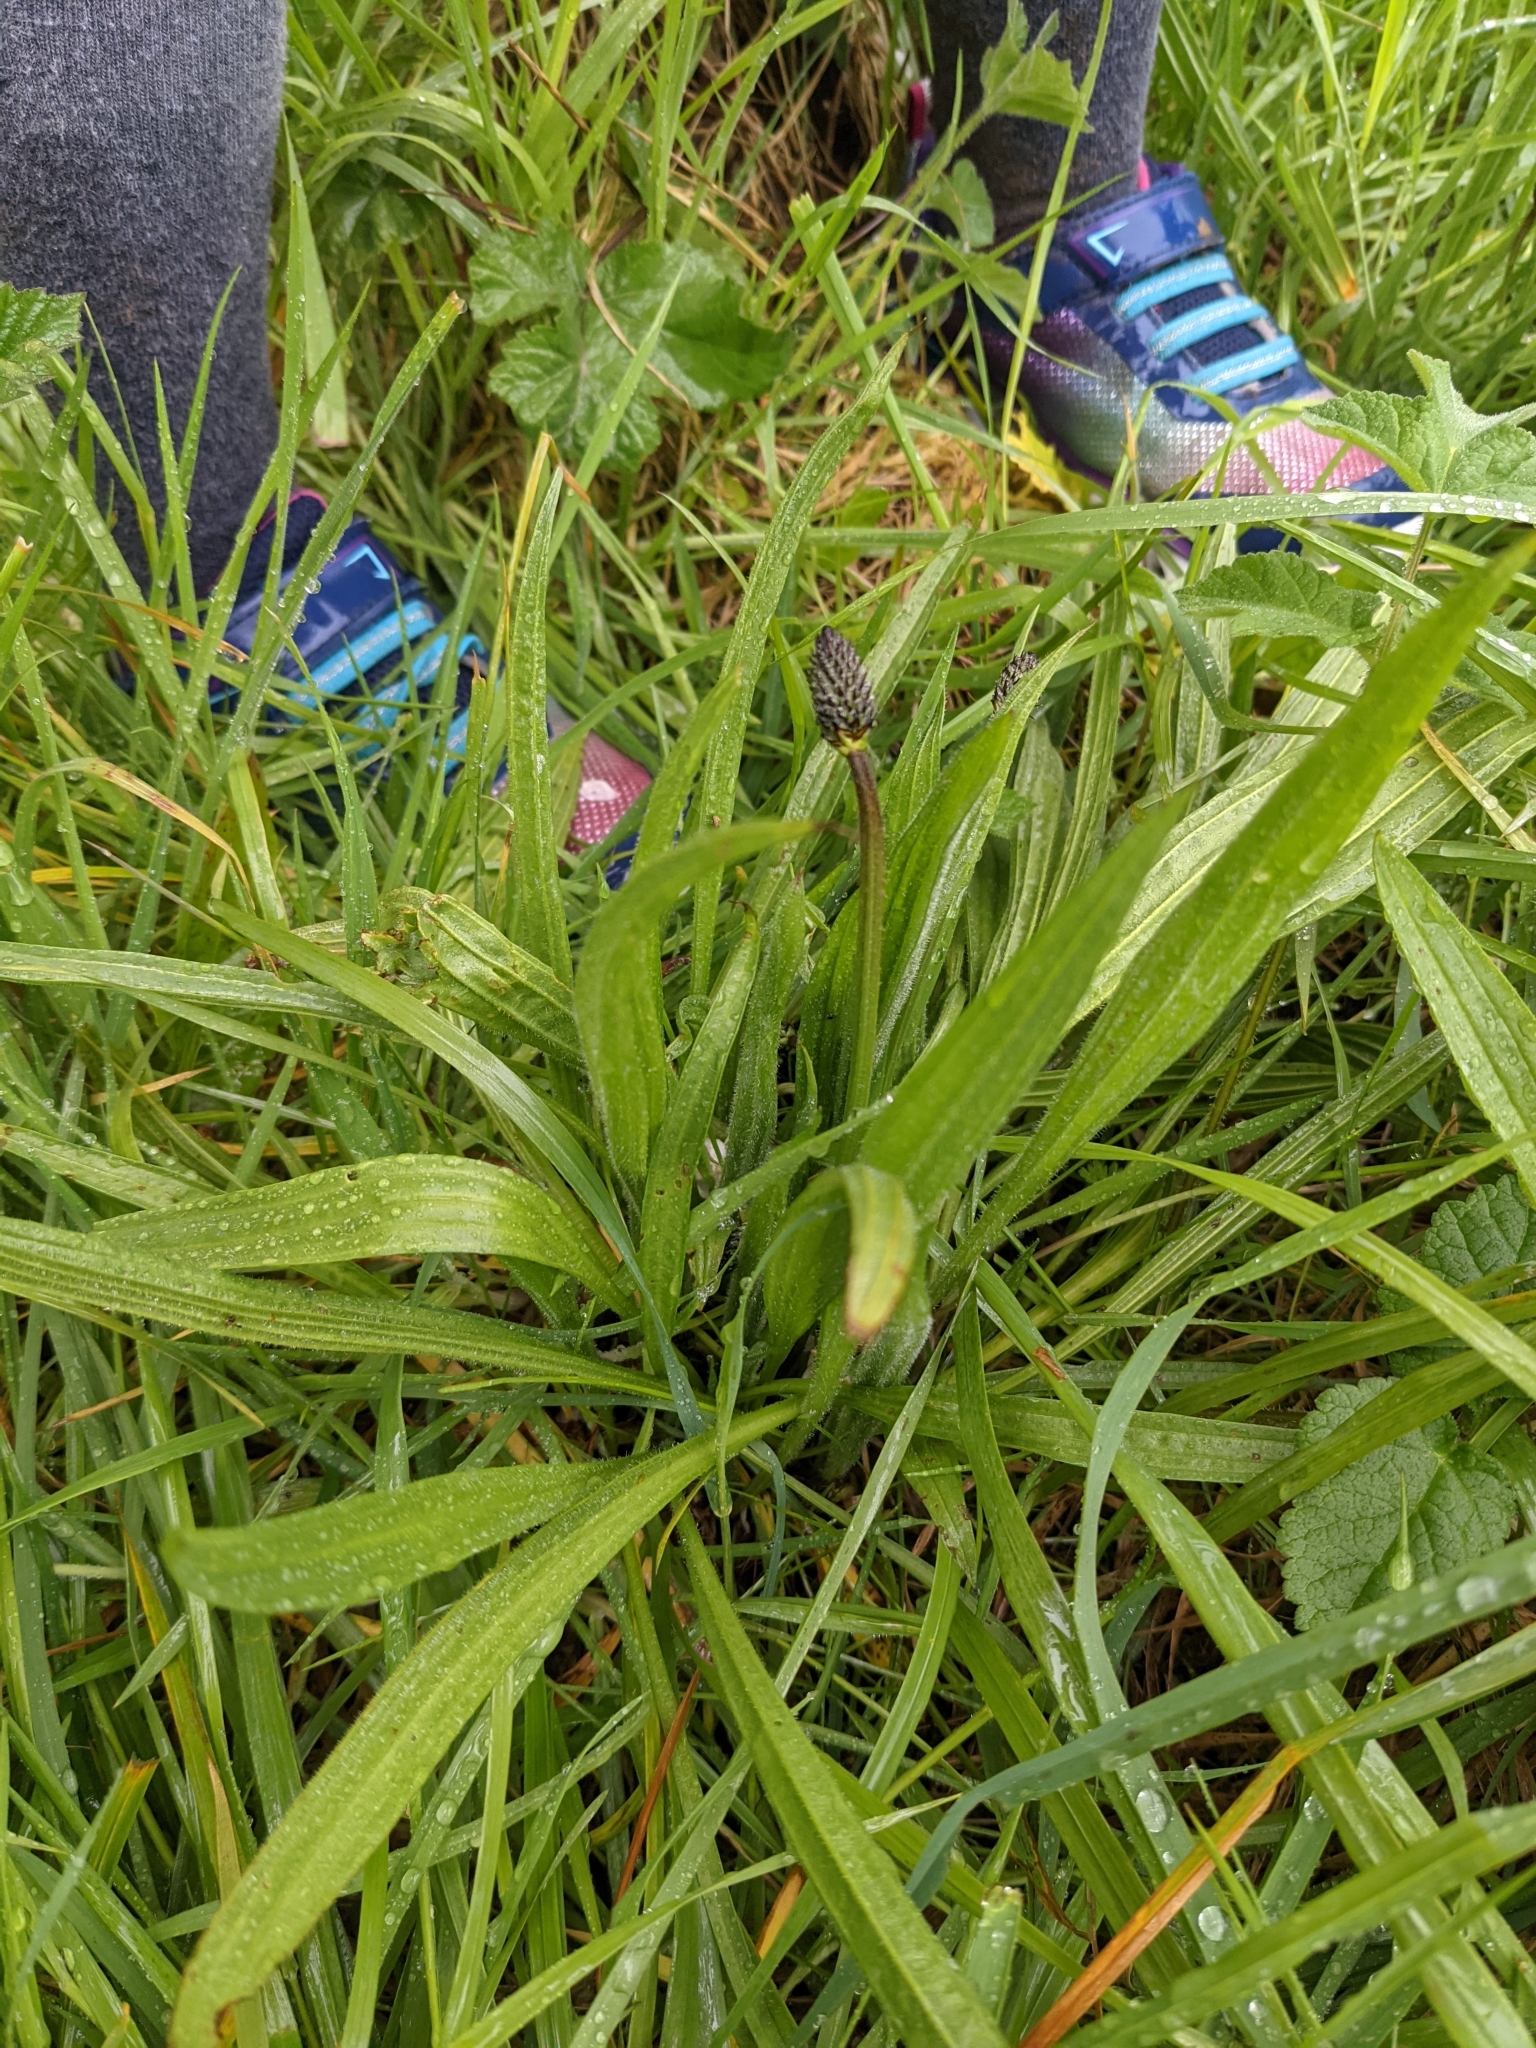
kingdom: Plantae
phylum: Tracheophyta
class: Magnoliopsida
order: Lamiales
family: Plantaginaceae
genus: Plantago
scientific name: Plantago lanceolata
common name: Ribwort plantain
